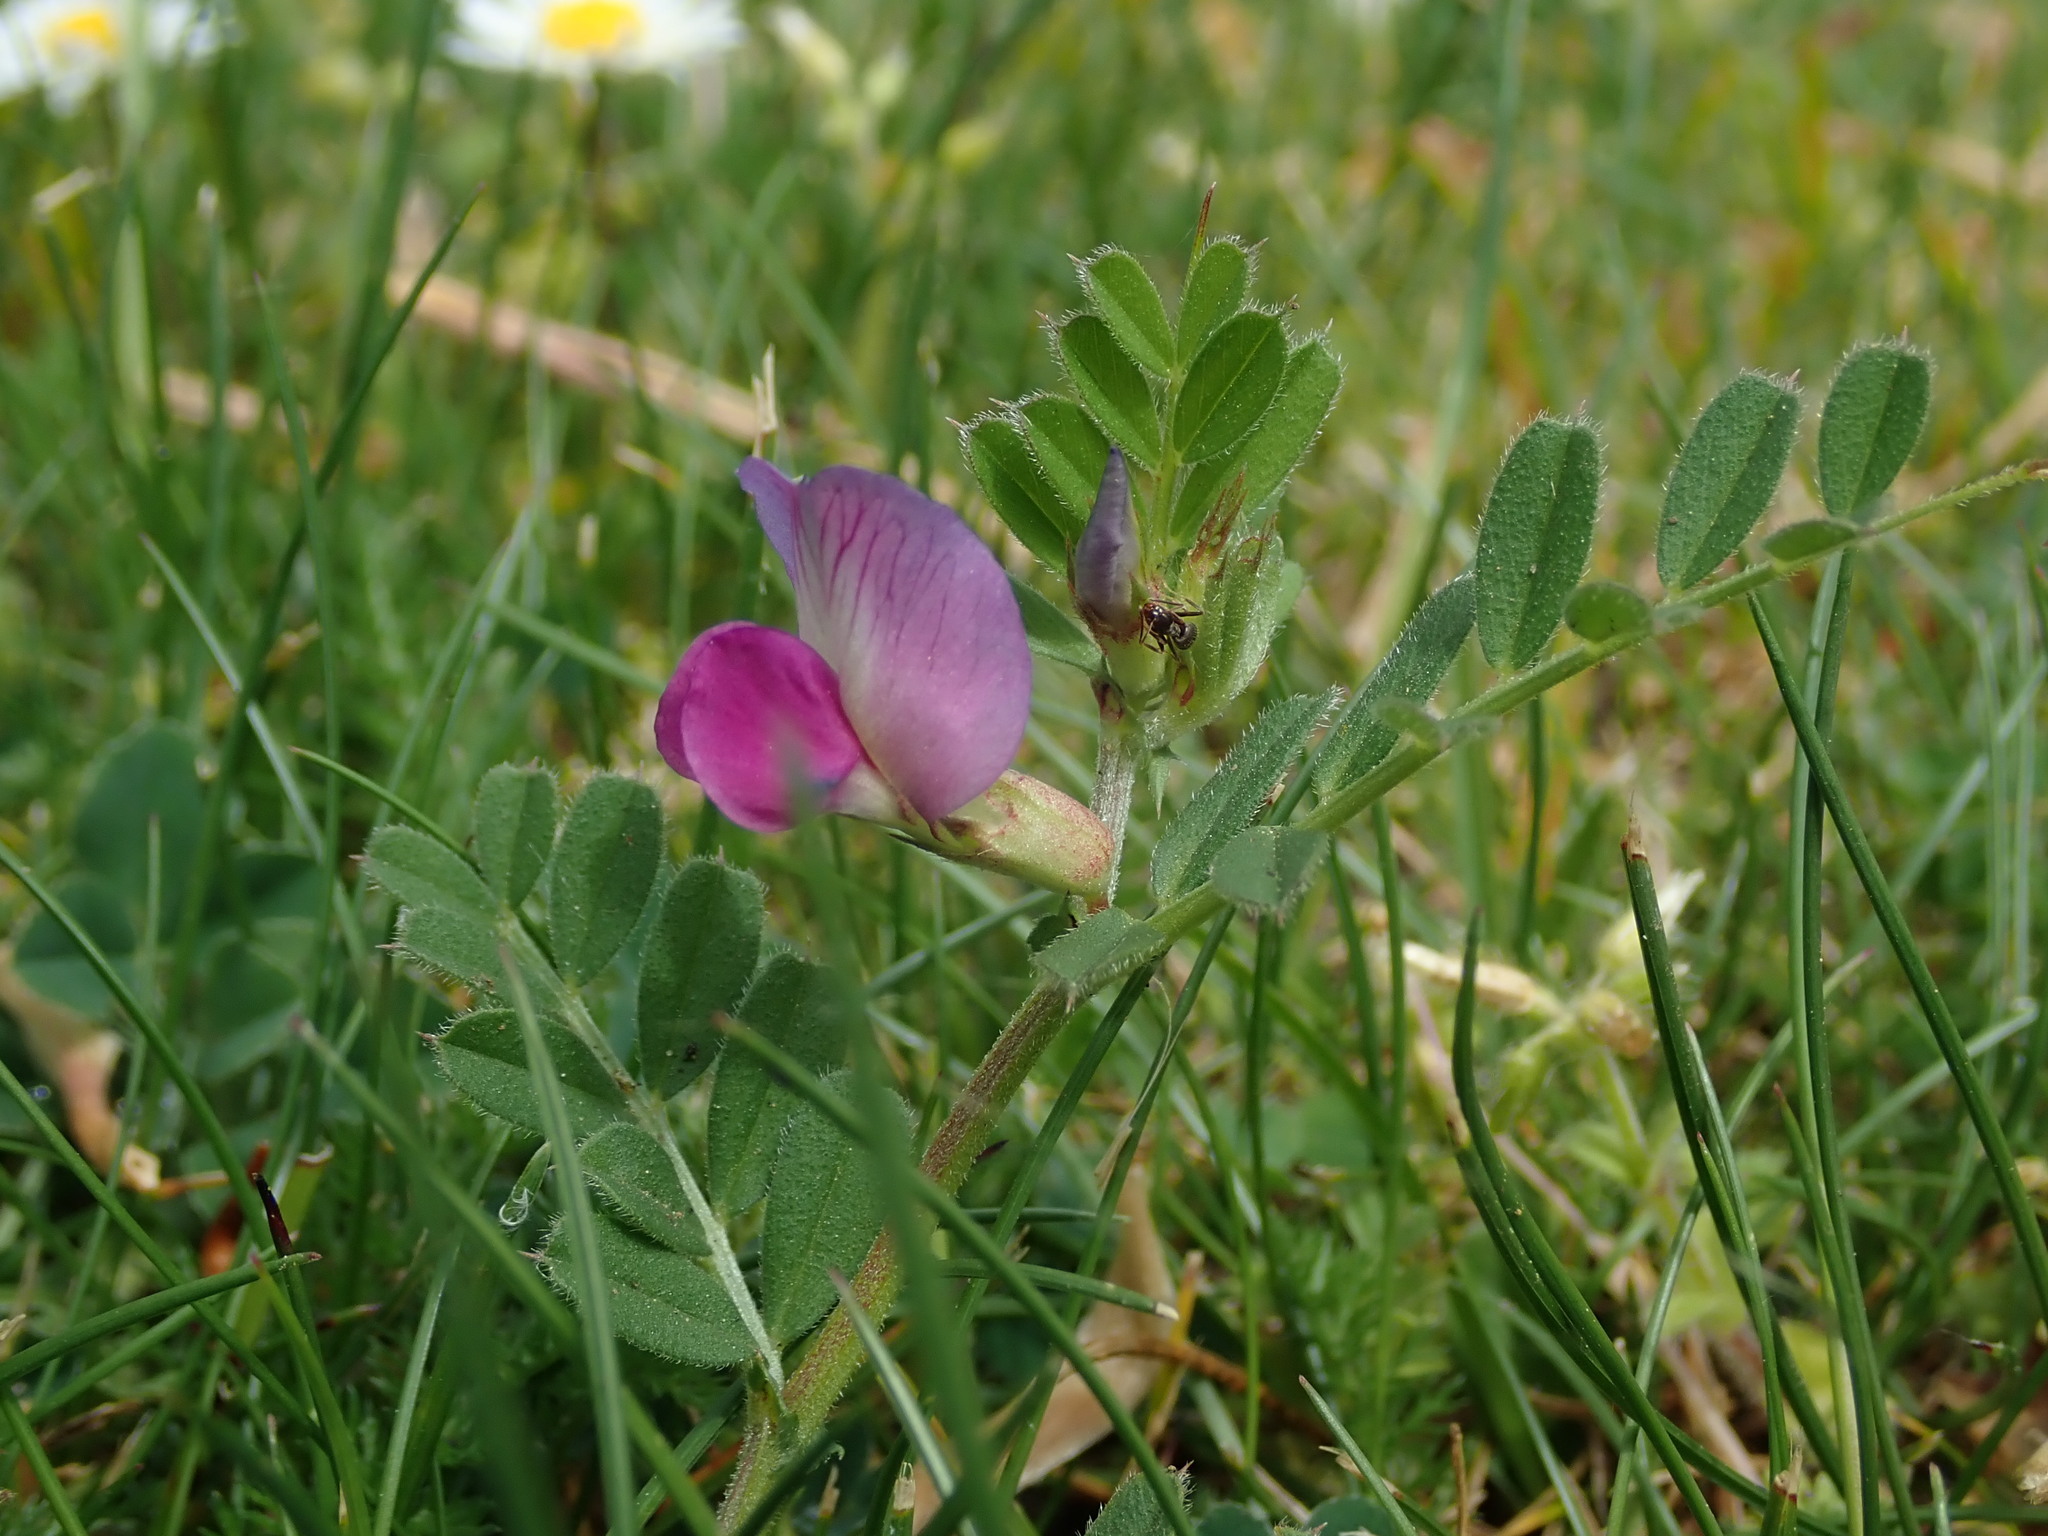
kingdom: Plantae
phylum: Tracheophyta
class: Magnoliopsida
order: Fabales
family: Fabaceae
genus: Vicia
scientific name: Vicia sativa
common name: Garden vetch
